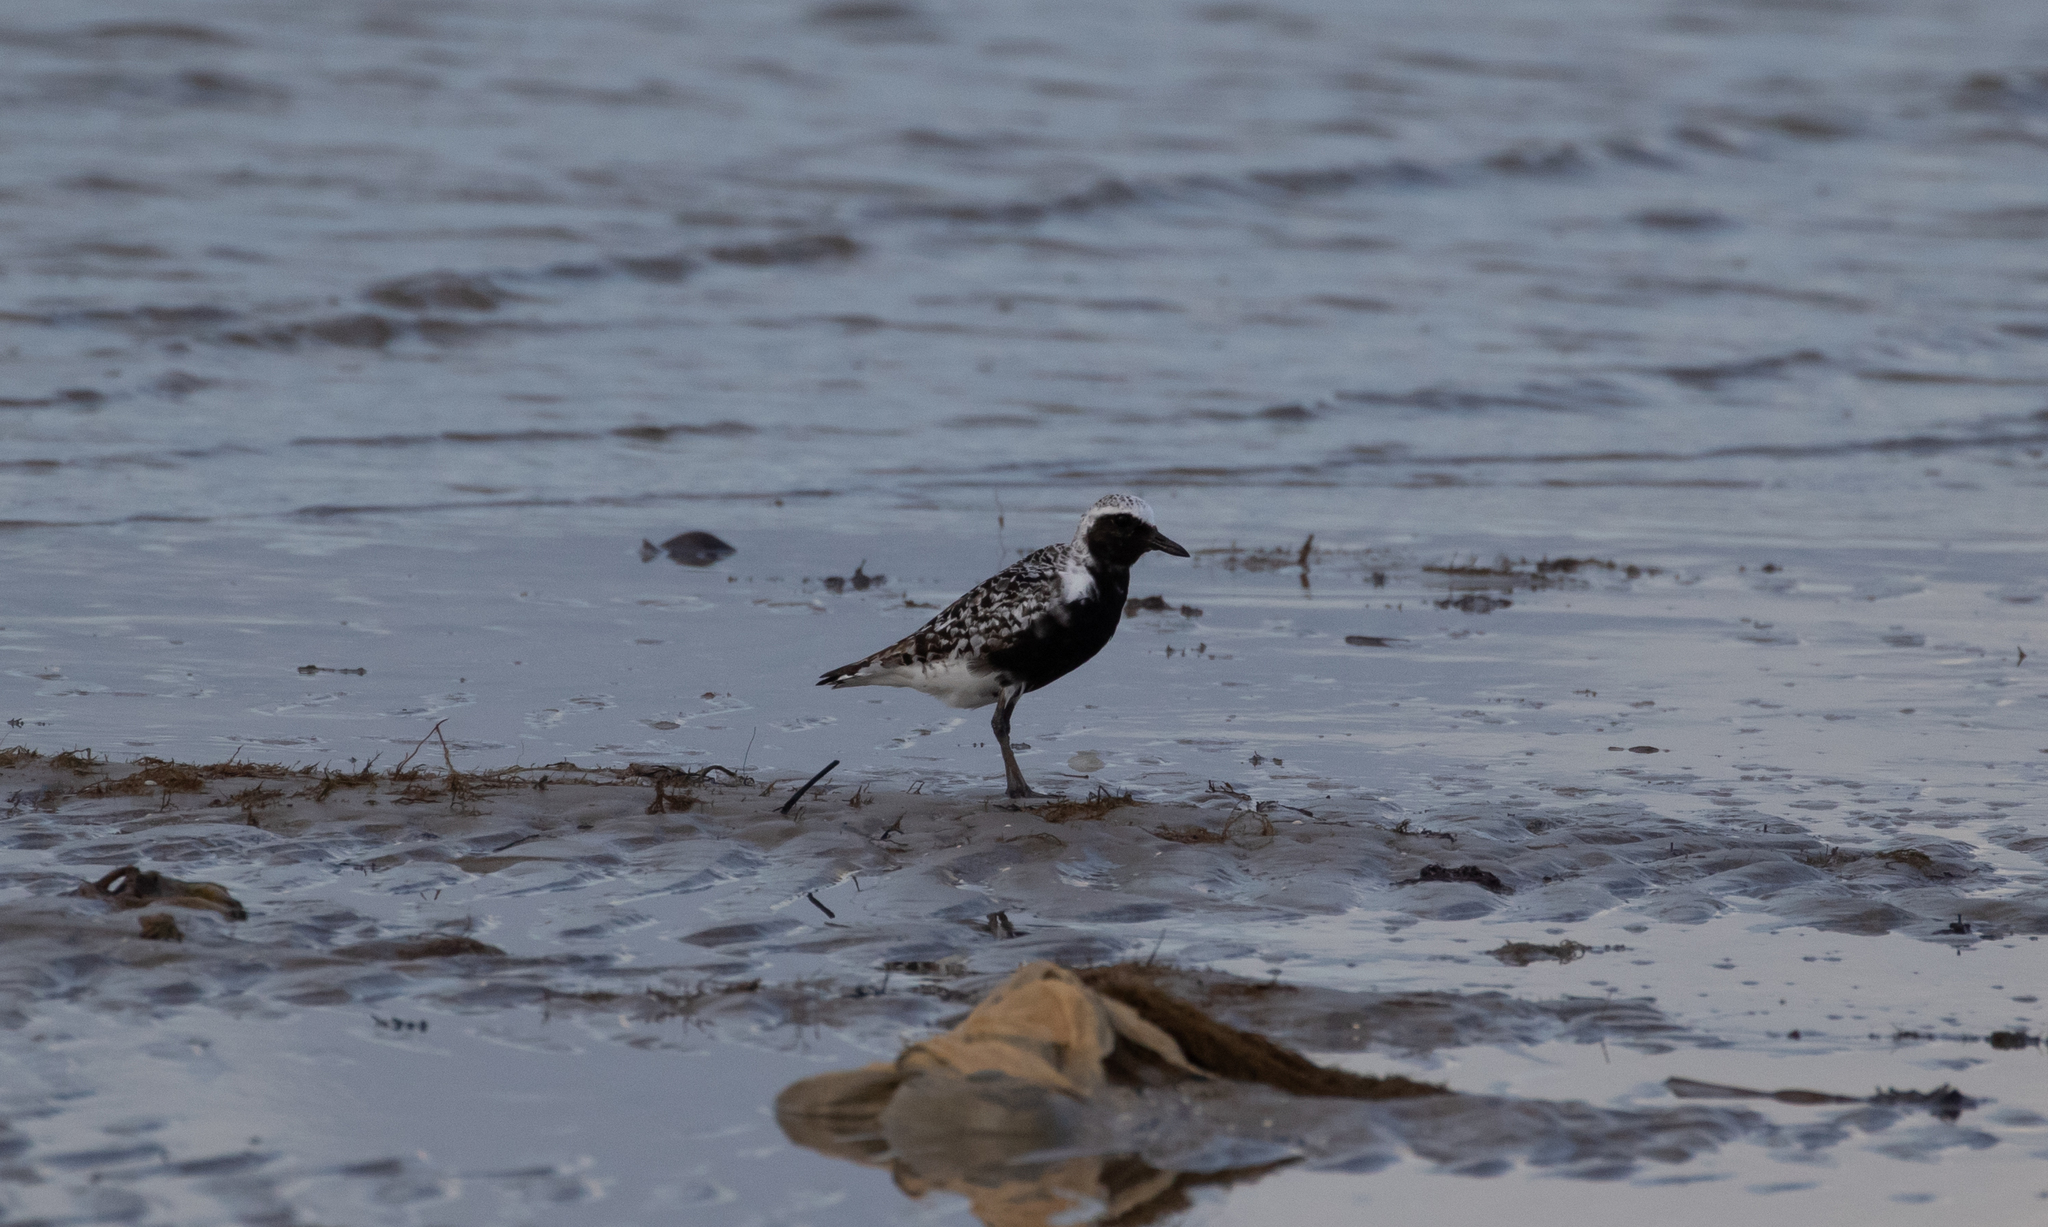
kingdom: Animalia
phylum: Chordata
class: Aves
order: Charadriiformes
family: Charadriidae
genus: Pluvialis
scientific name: Pluvialis squatarola
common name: Grey plover
